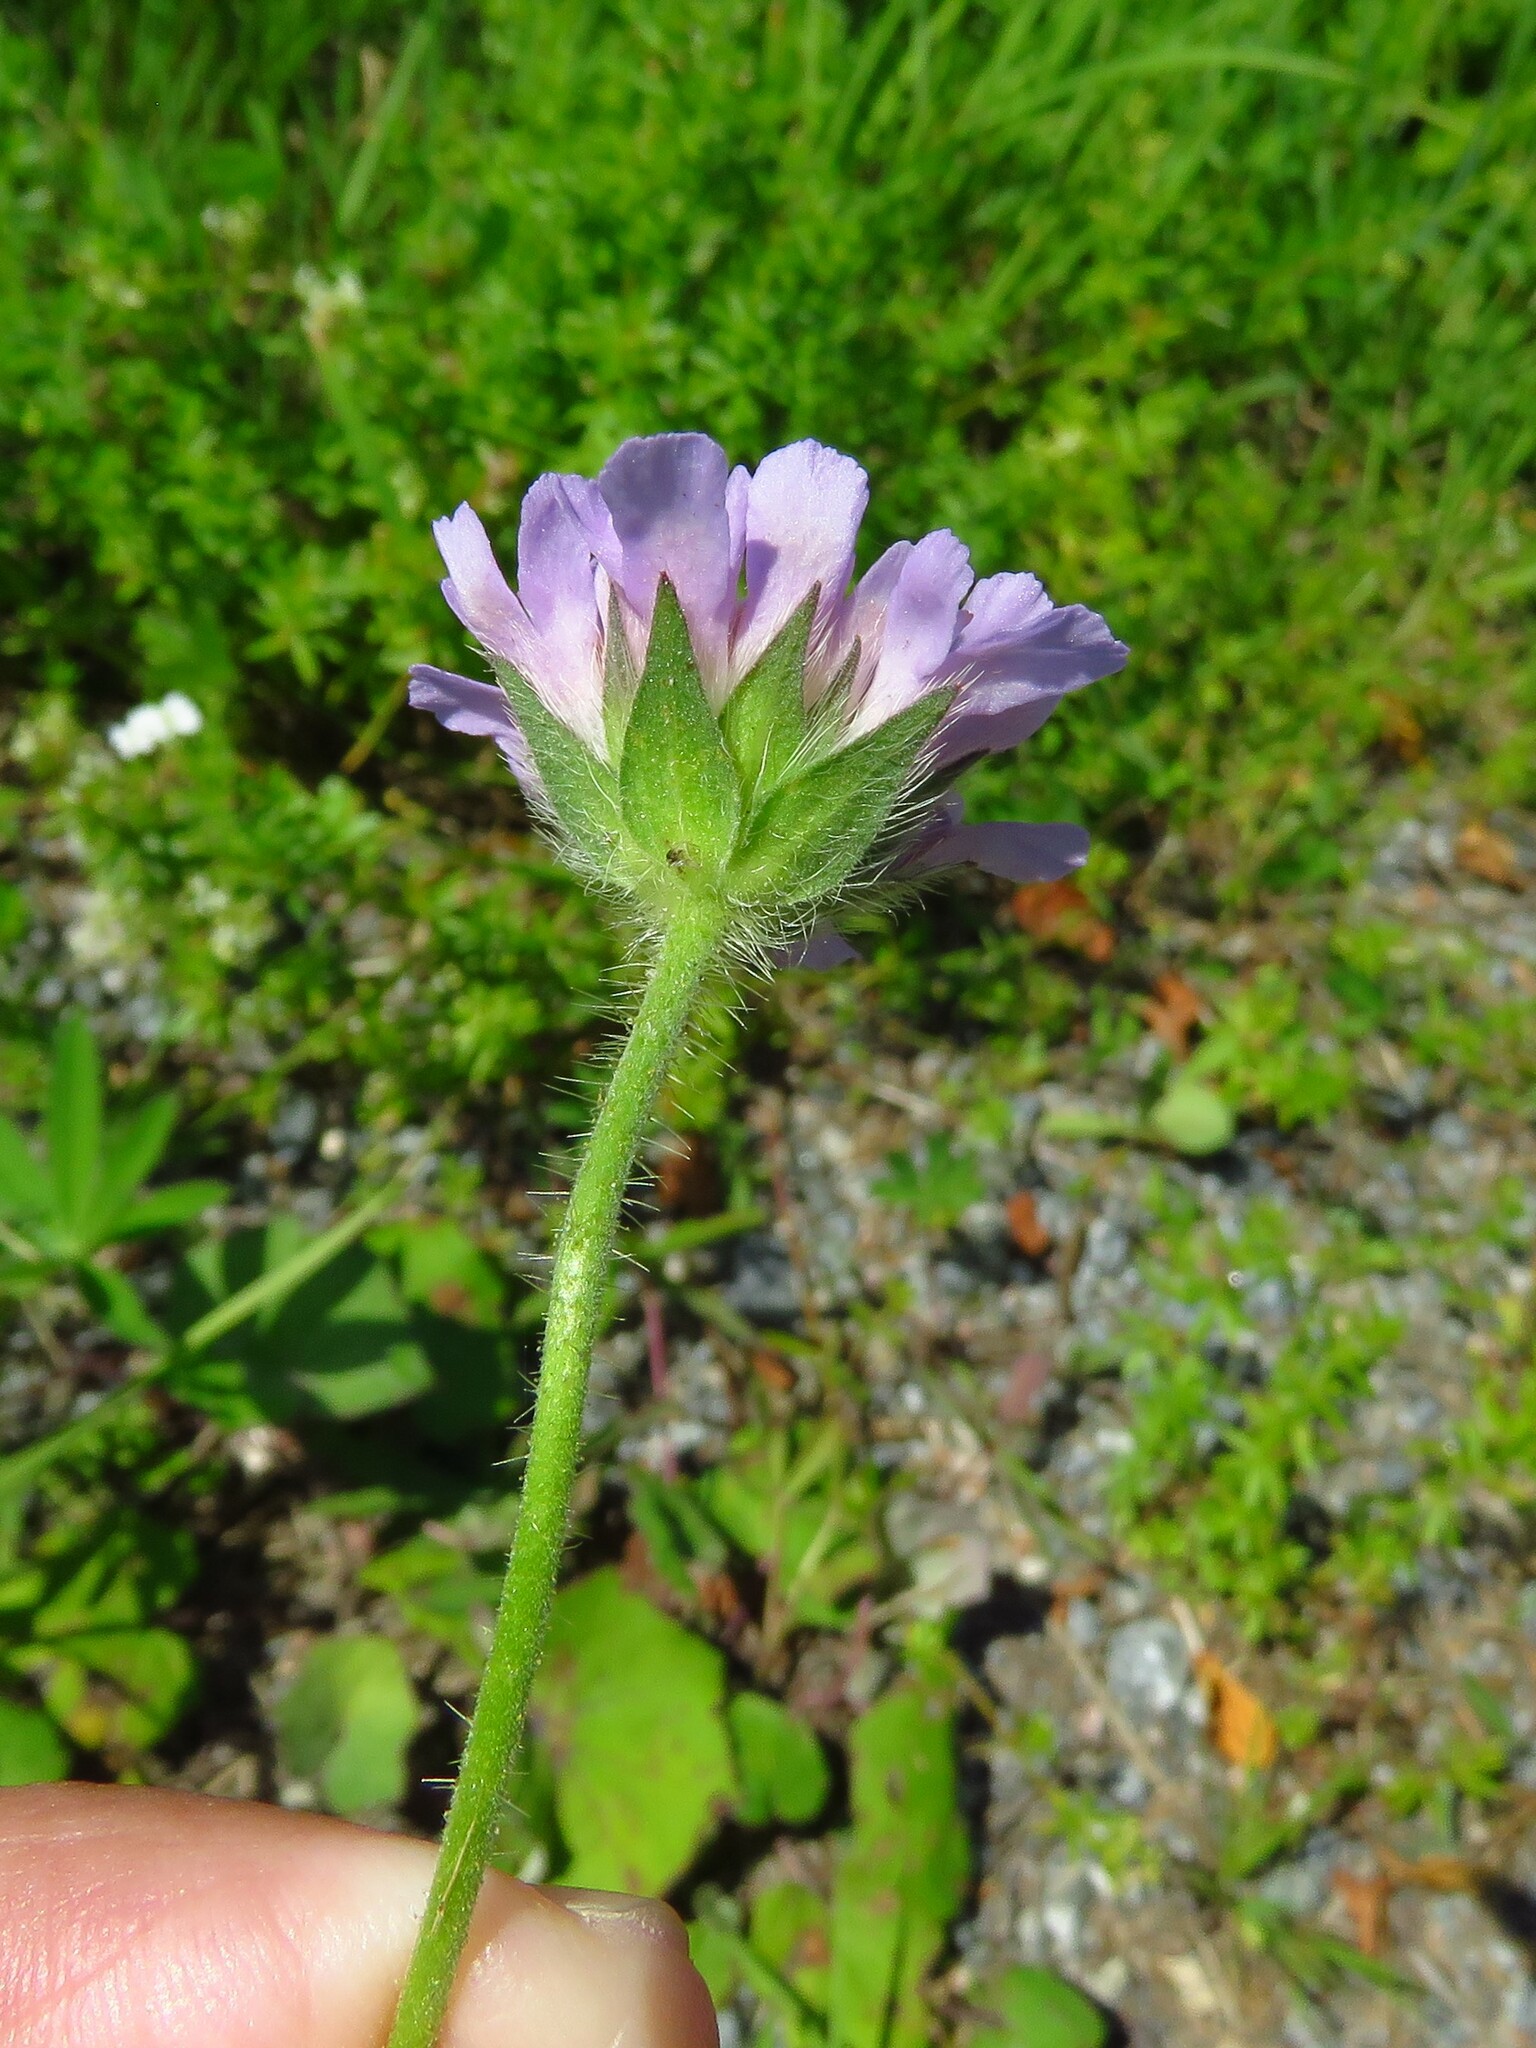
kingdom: Plantae
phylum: Tracheophyta
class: Magnoliopsida
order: Dipsacales
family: Caprifoliaceae
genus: Knautia
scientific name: Knautia arvensis
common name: Field scabiosa
